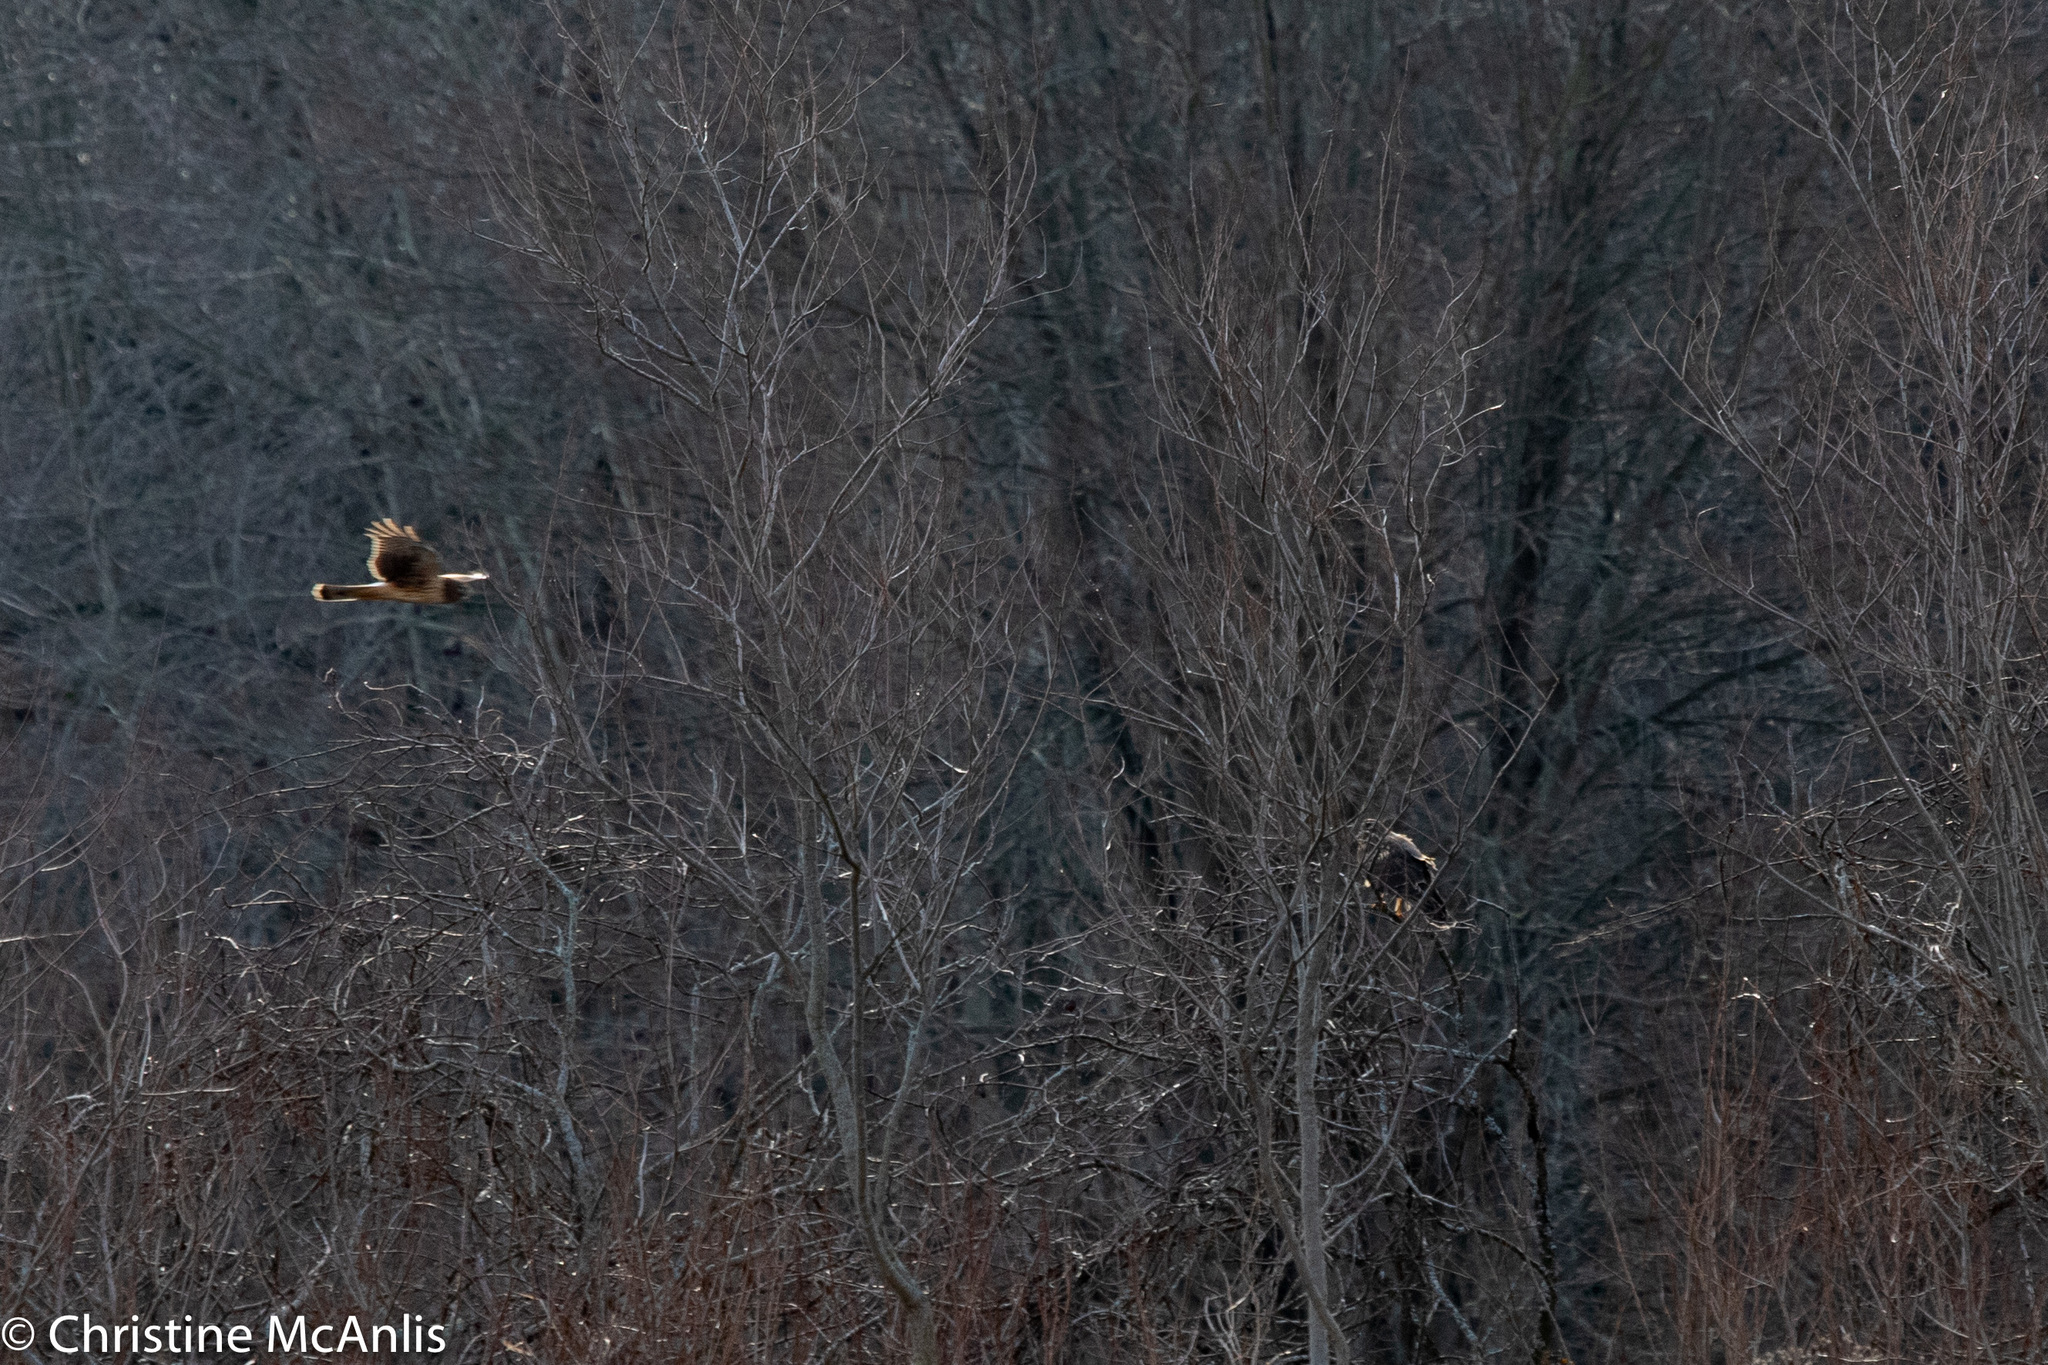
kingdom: Animalia
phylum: Chordata
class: Aves
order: Accipitriformes
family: Accipitridae
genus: Circus
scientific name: Circus cyaneus
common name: Hen harrier
